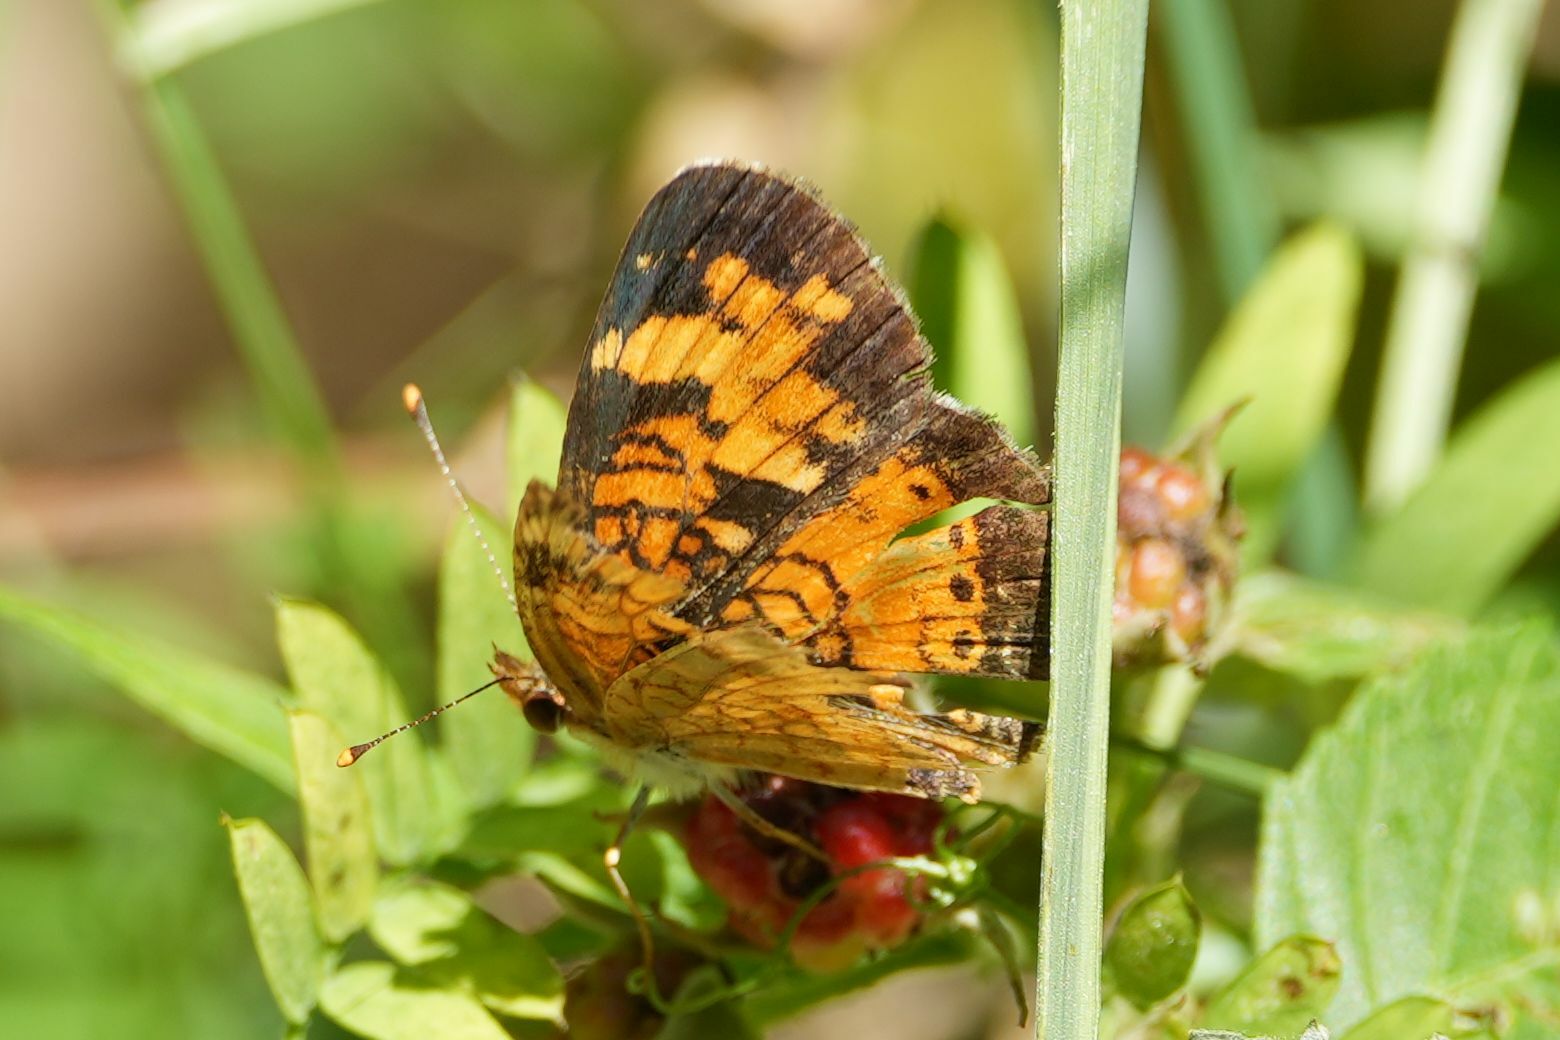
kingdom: Animalia
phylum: Arthropoda
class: Insecta
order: Lepidoptera
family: Nymphalidae
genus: Phyciodes
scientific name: Phyciodes tharos
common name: Pearl crescent
